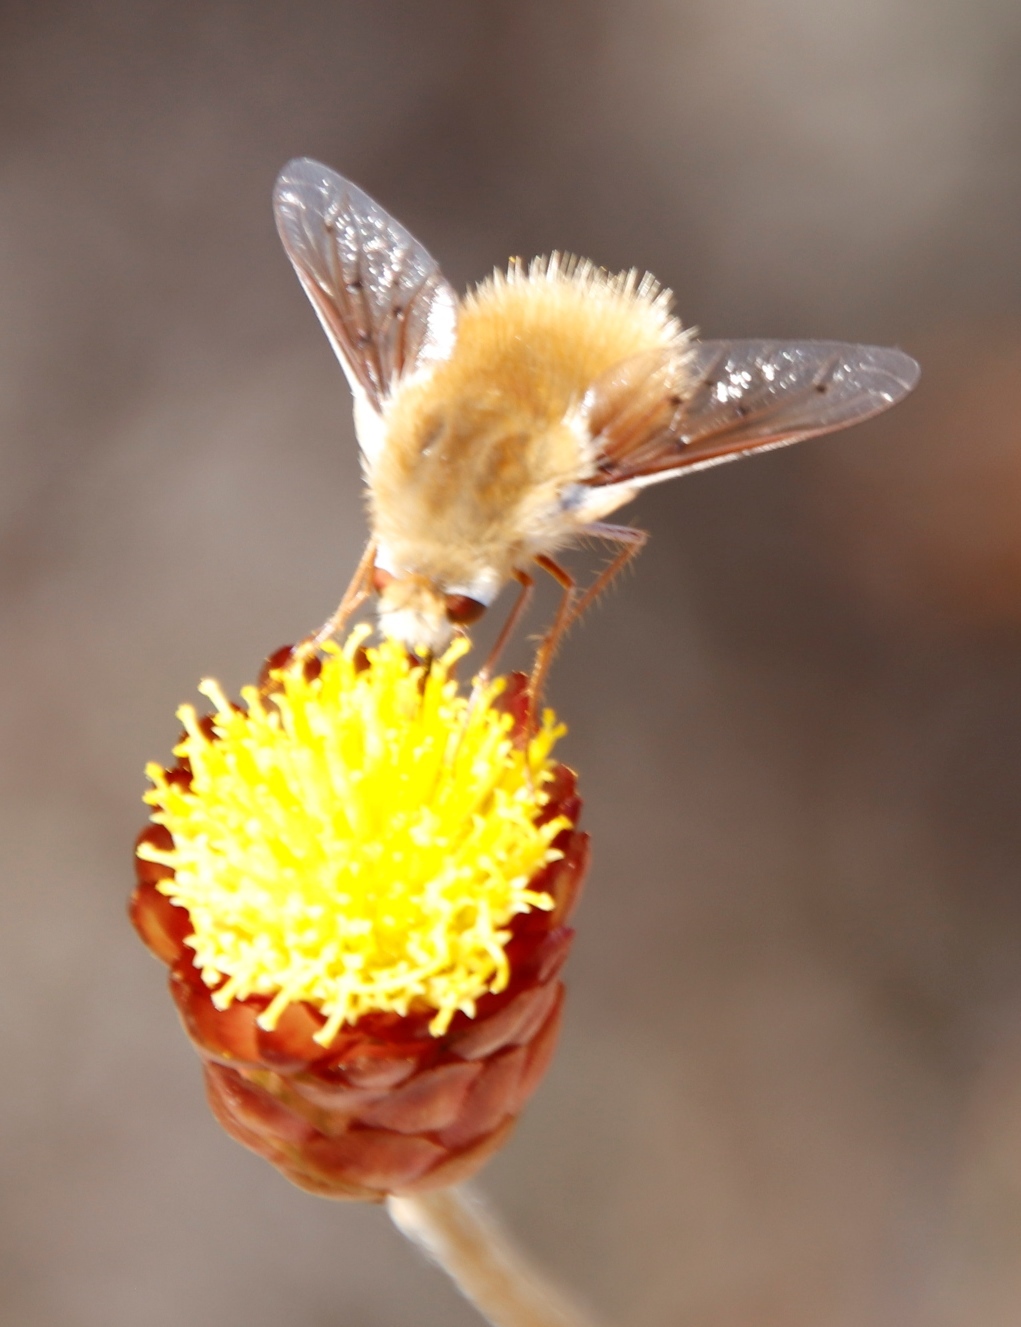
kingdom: Plantae
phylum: Tracheophyta
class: Magnoliopsida
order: Asterales
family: Asteraceae
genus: Achyranthemum
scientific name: Achyranthemum affine
